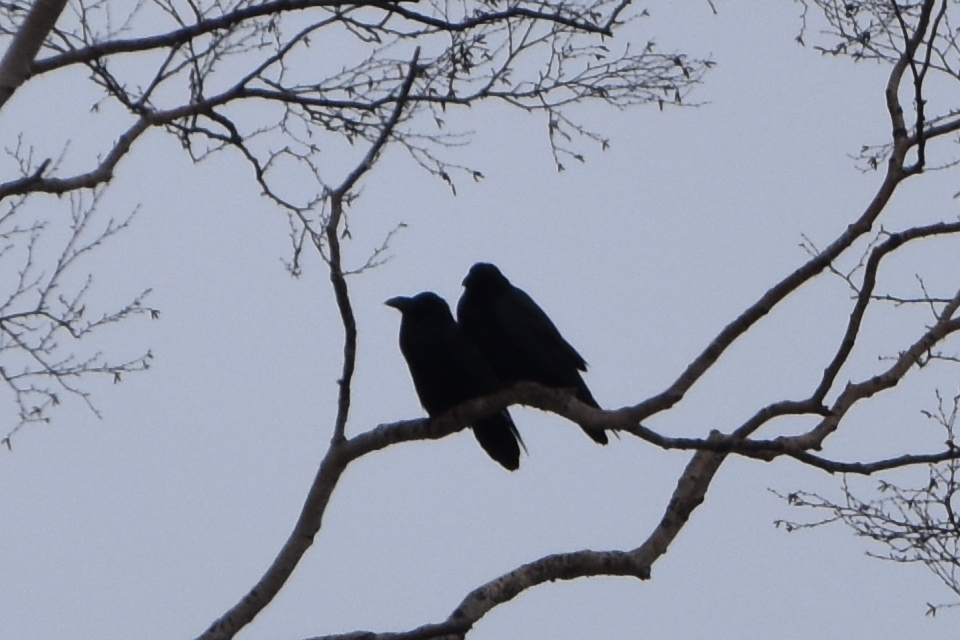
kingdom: Animalia
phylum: Chordata
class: Aves
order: Passeriformes
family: Corvidae
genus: Corvus
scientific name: Corvus corax
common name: Common raven
